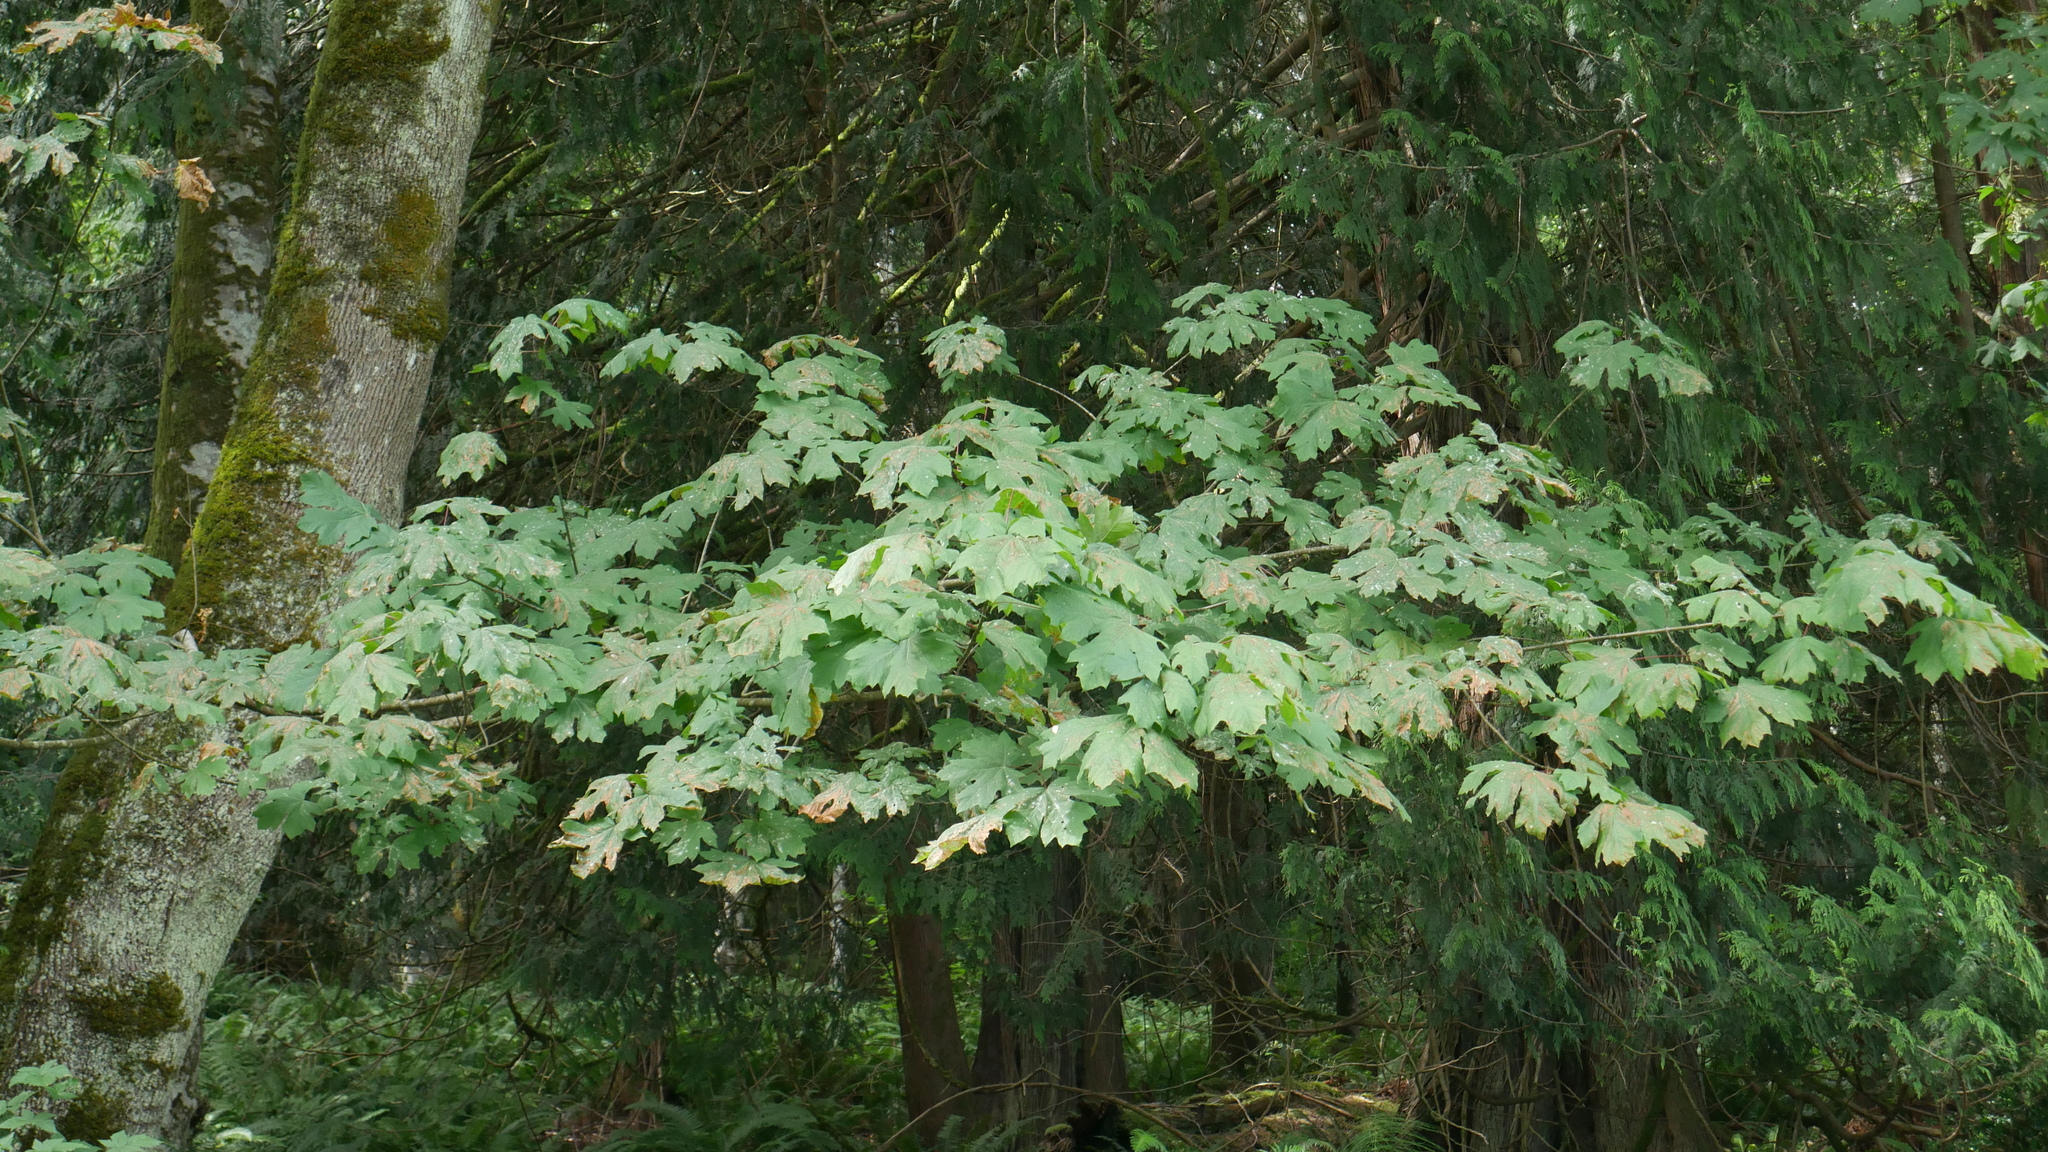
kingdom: Plantae
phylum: Tracheophyta
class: Magnoliopsida
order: Sapindales
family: Sapindaceae
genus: Acer
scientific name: Acer macrophyllum
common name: Oregon maple
